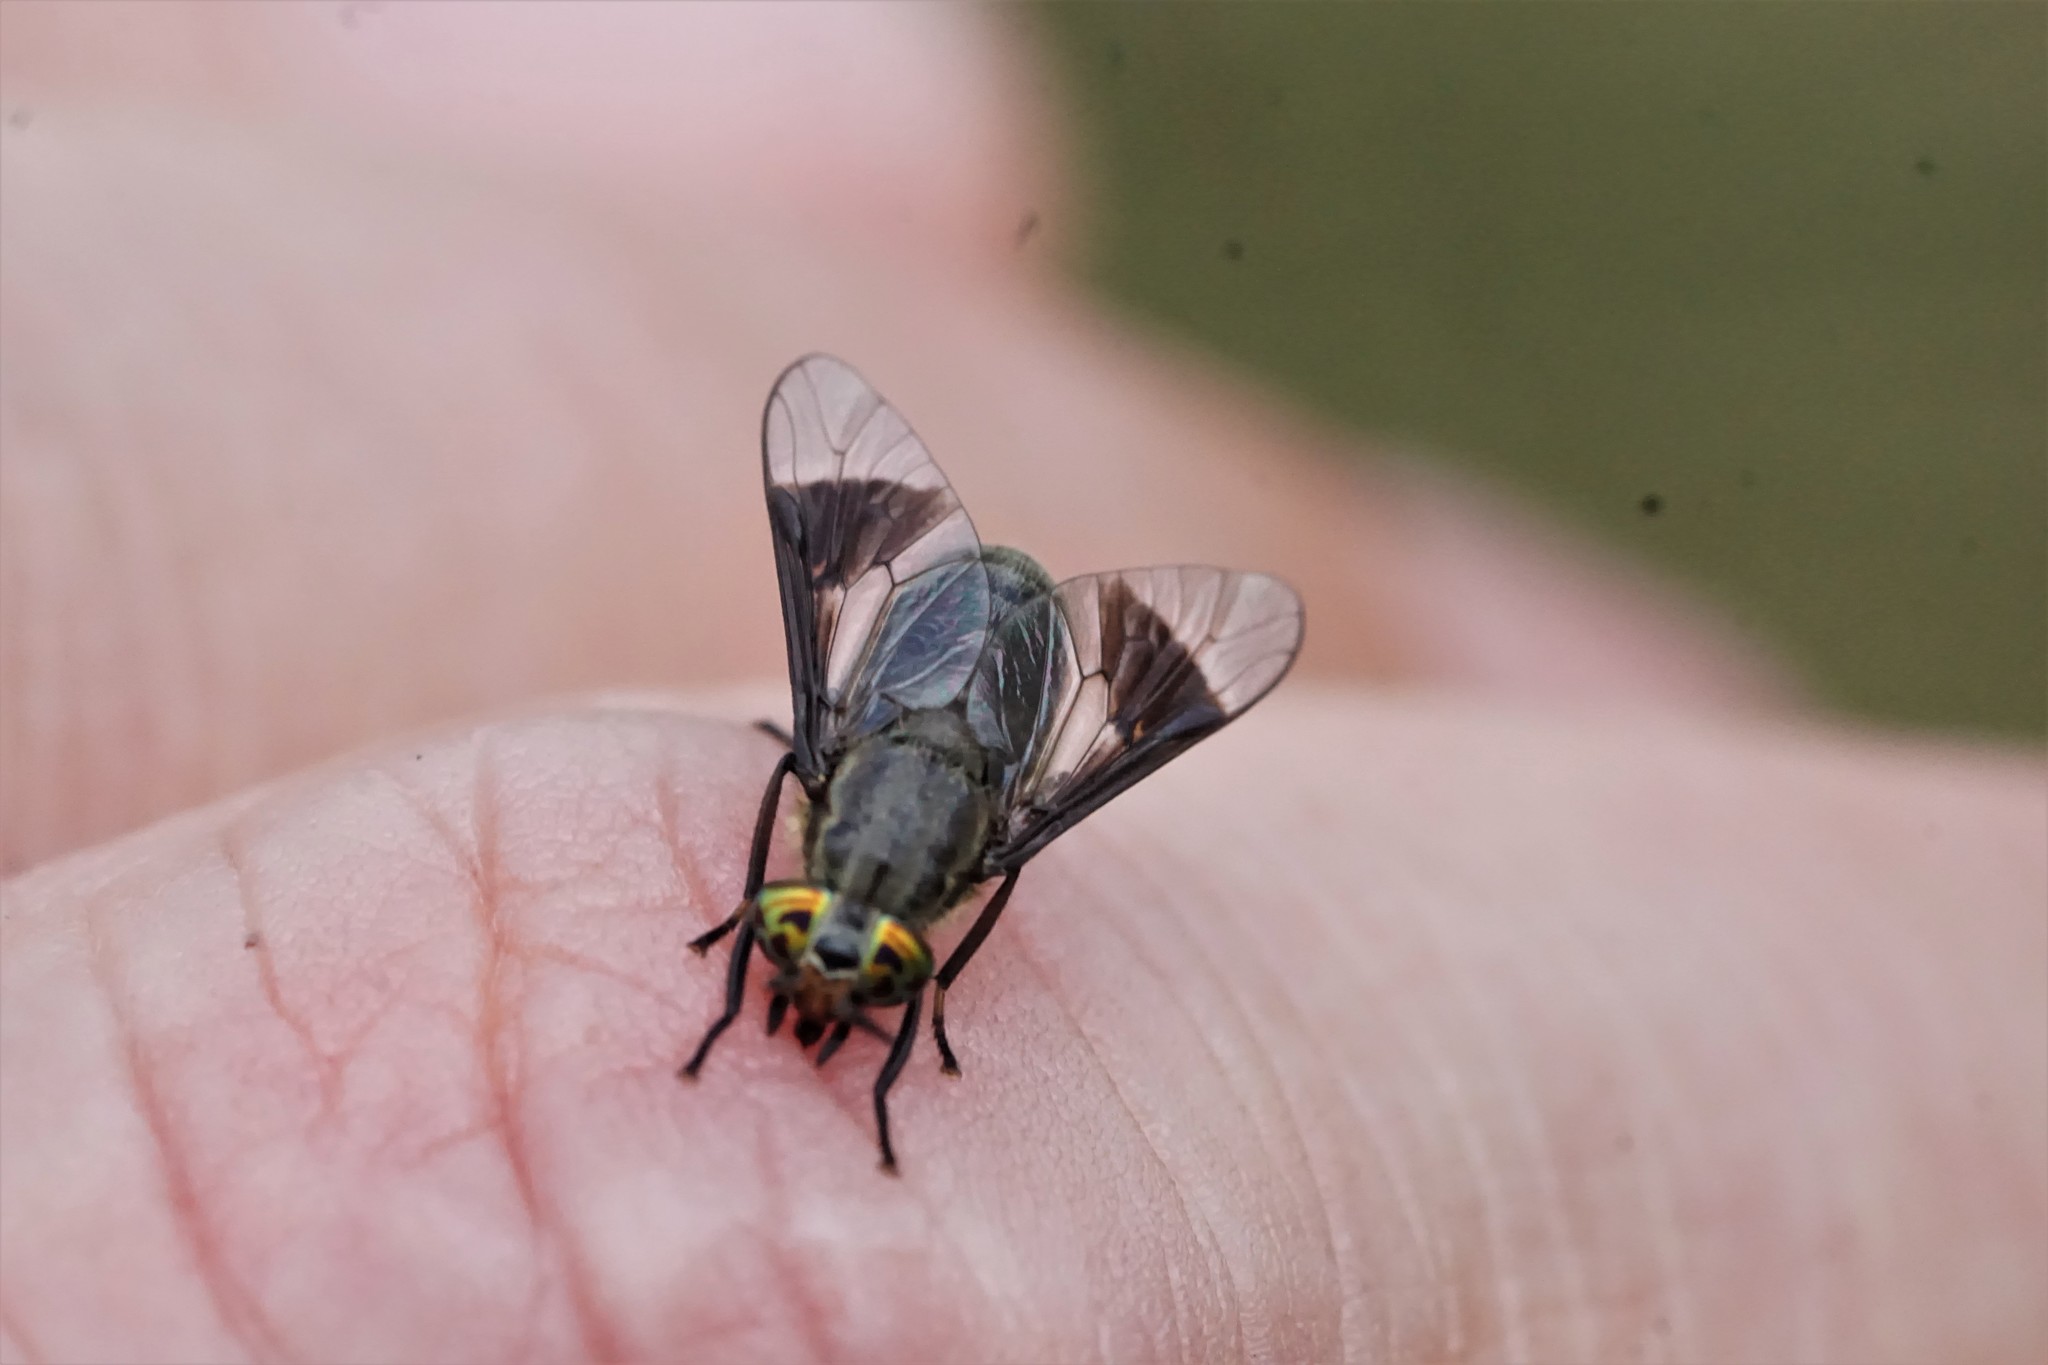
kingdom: Animalia
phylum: Arthropoda
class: Insecta
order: Diptera
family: Tabanidae
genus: Chrysops
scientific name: Chrysops niger
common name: Black deer fly
